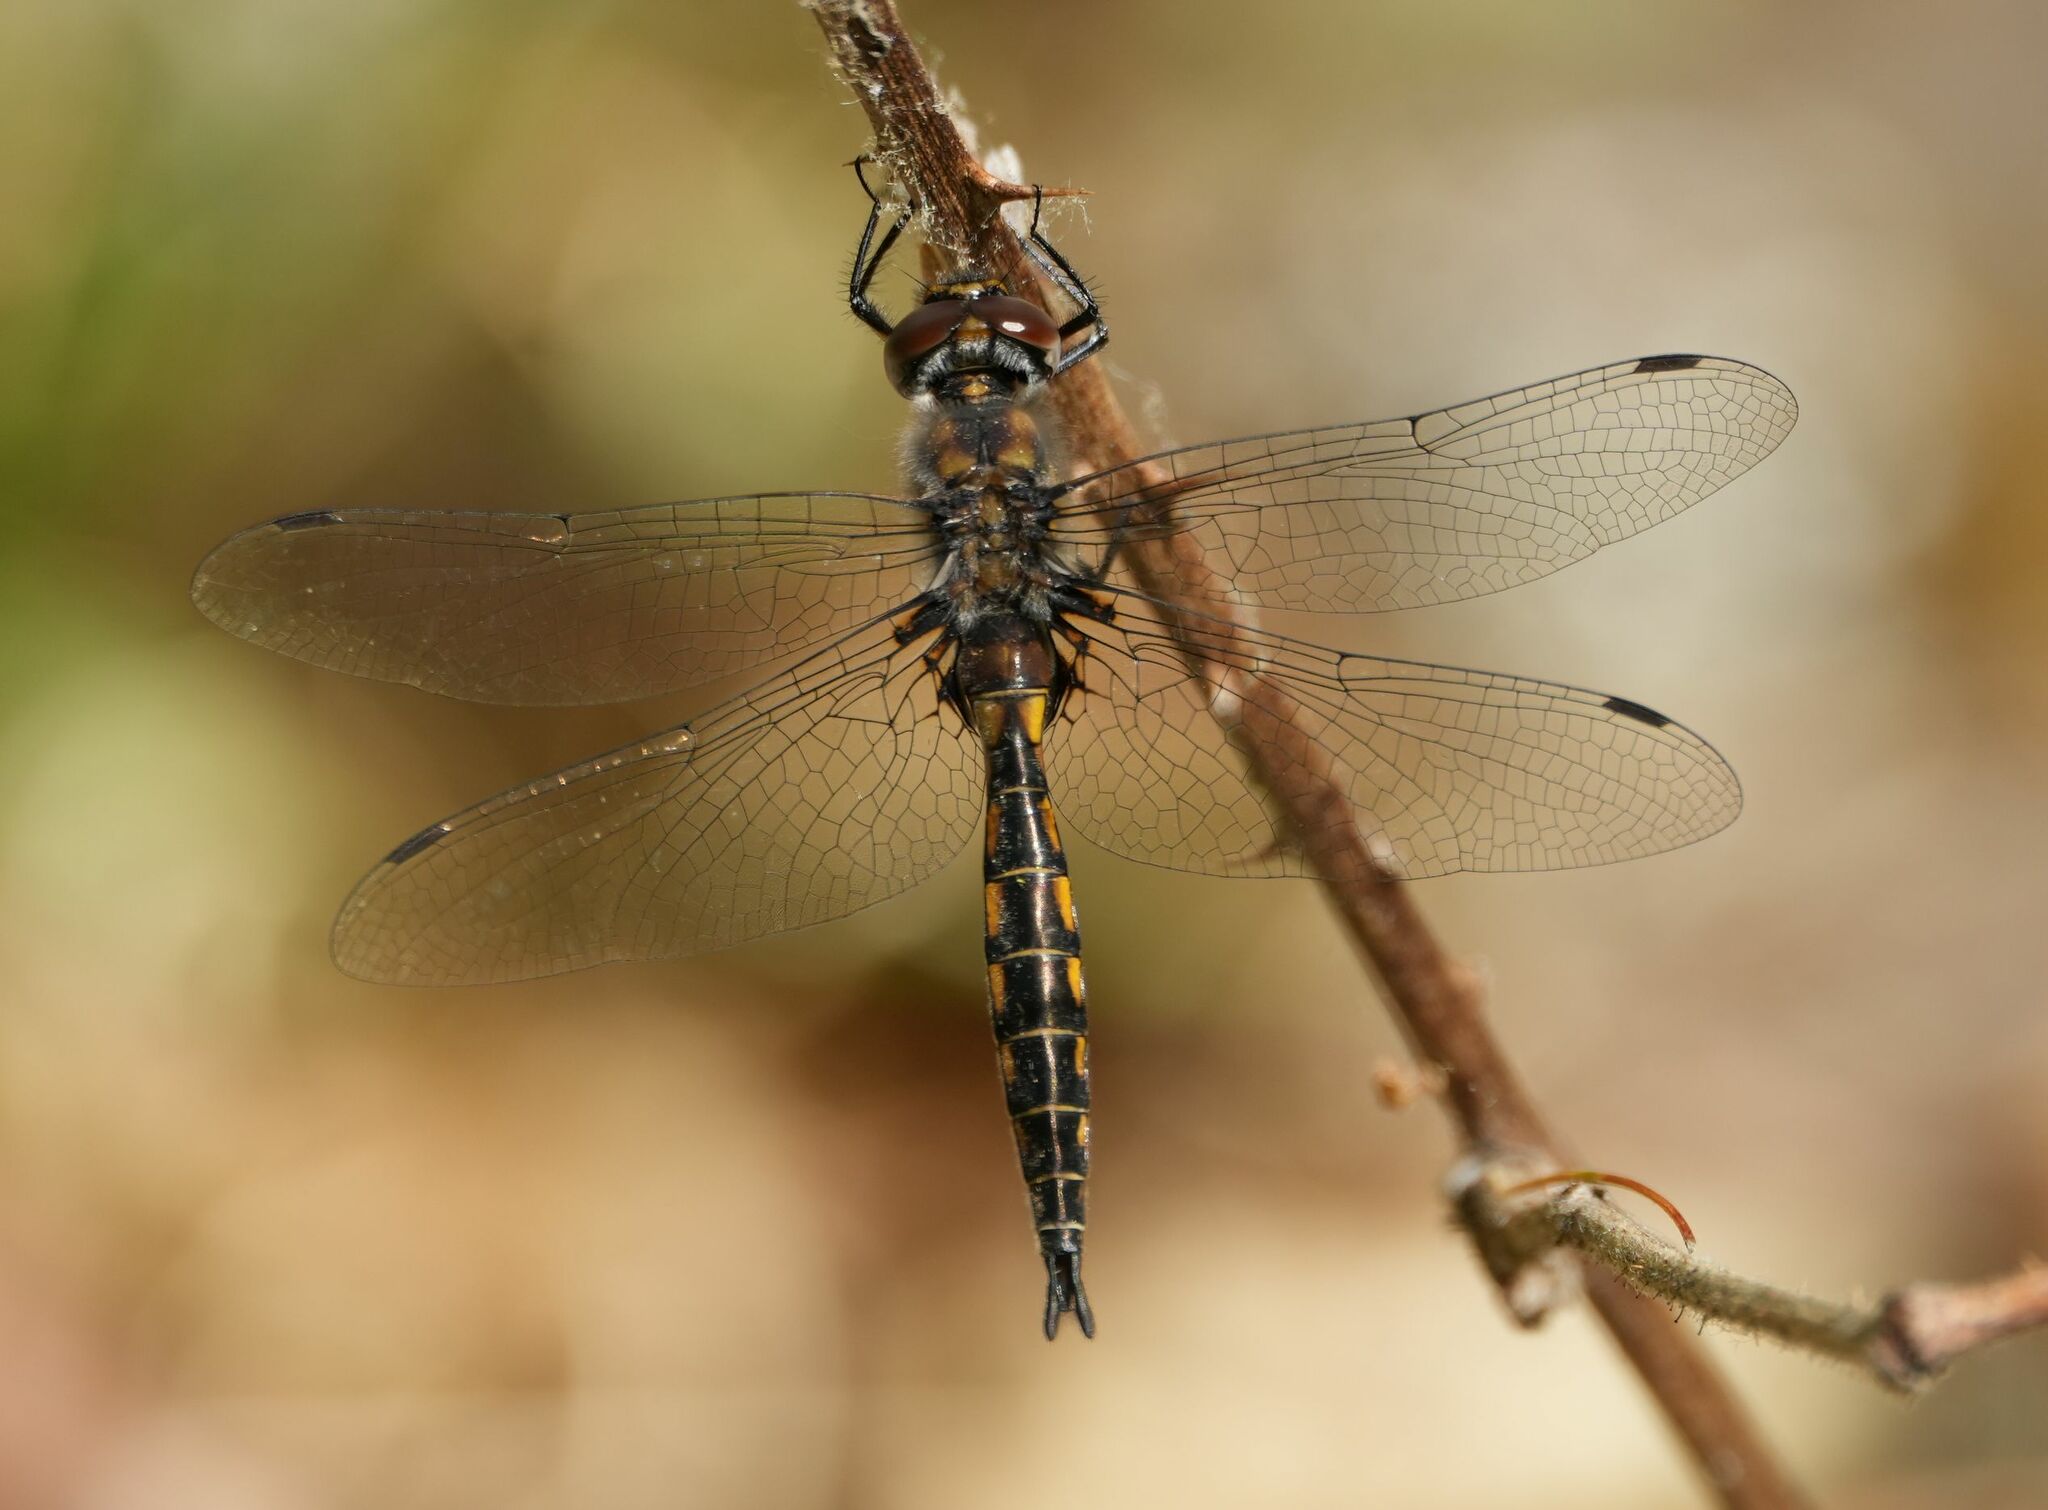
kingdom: Animalia
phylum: Arthropoda
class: Insecta
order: Odonata
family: Corduliidae
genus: Epitheca
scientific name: Epitheca spinigera
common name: Spiny baskettail
